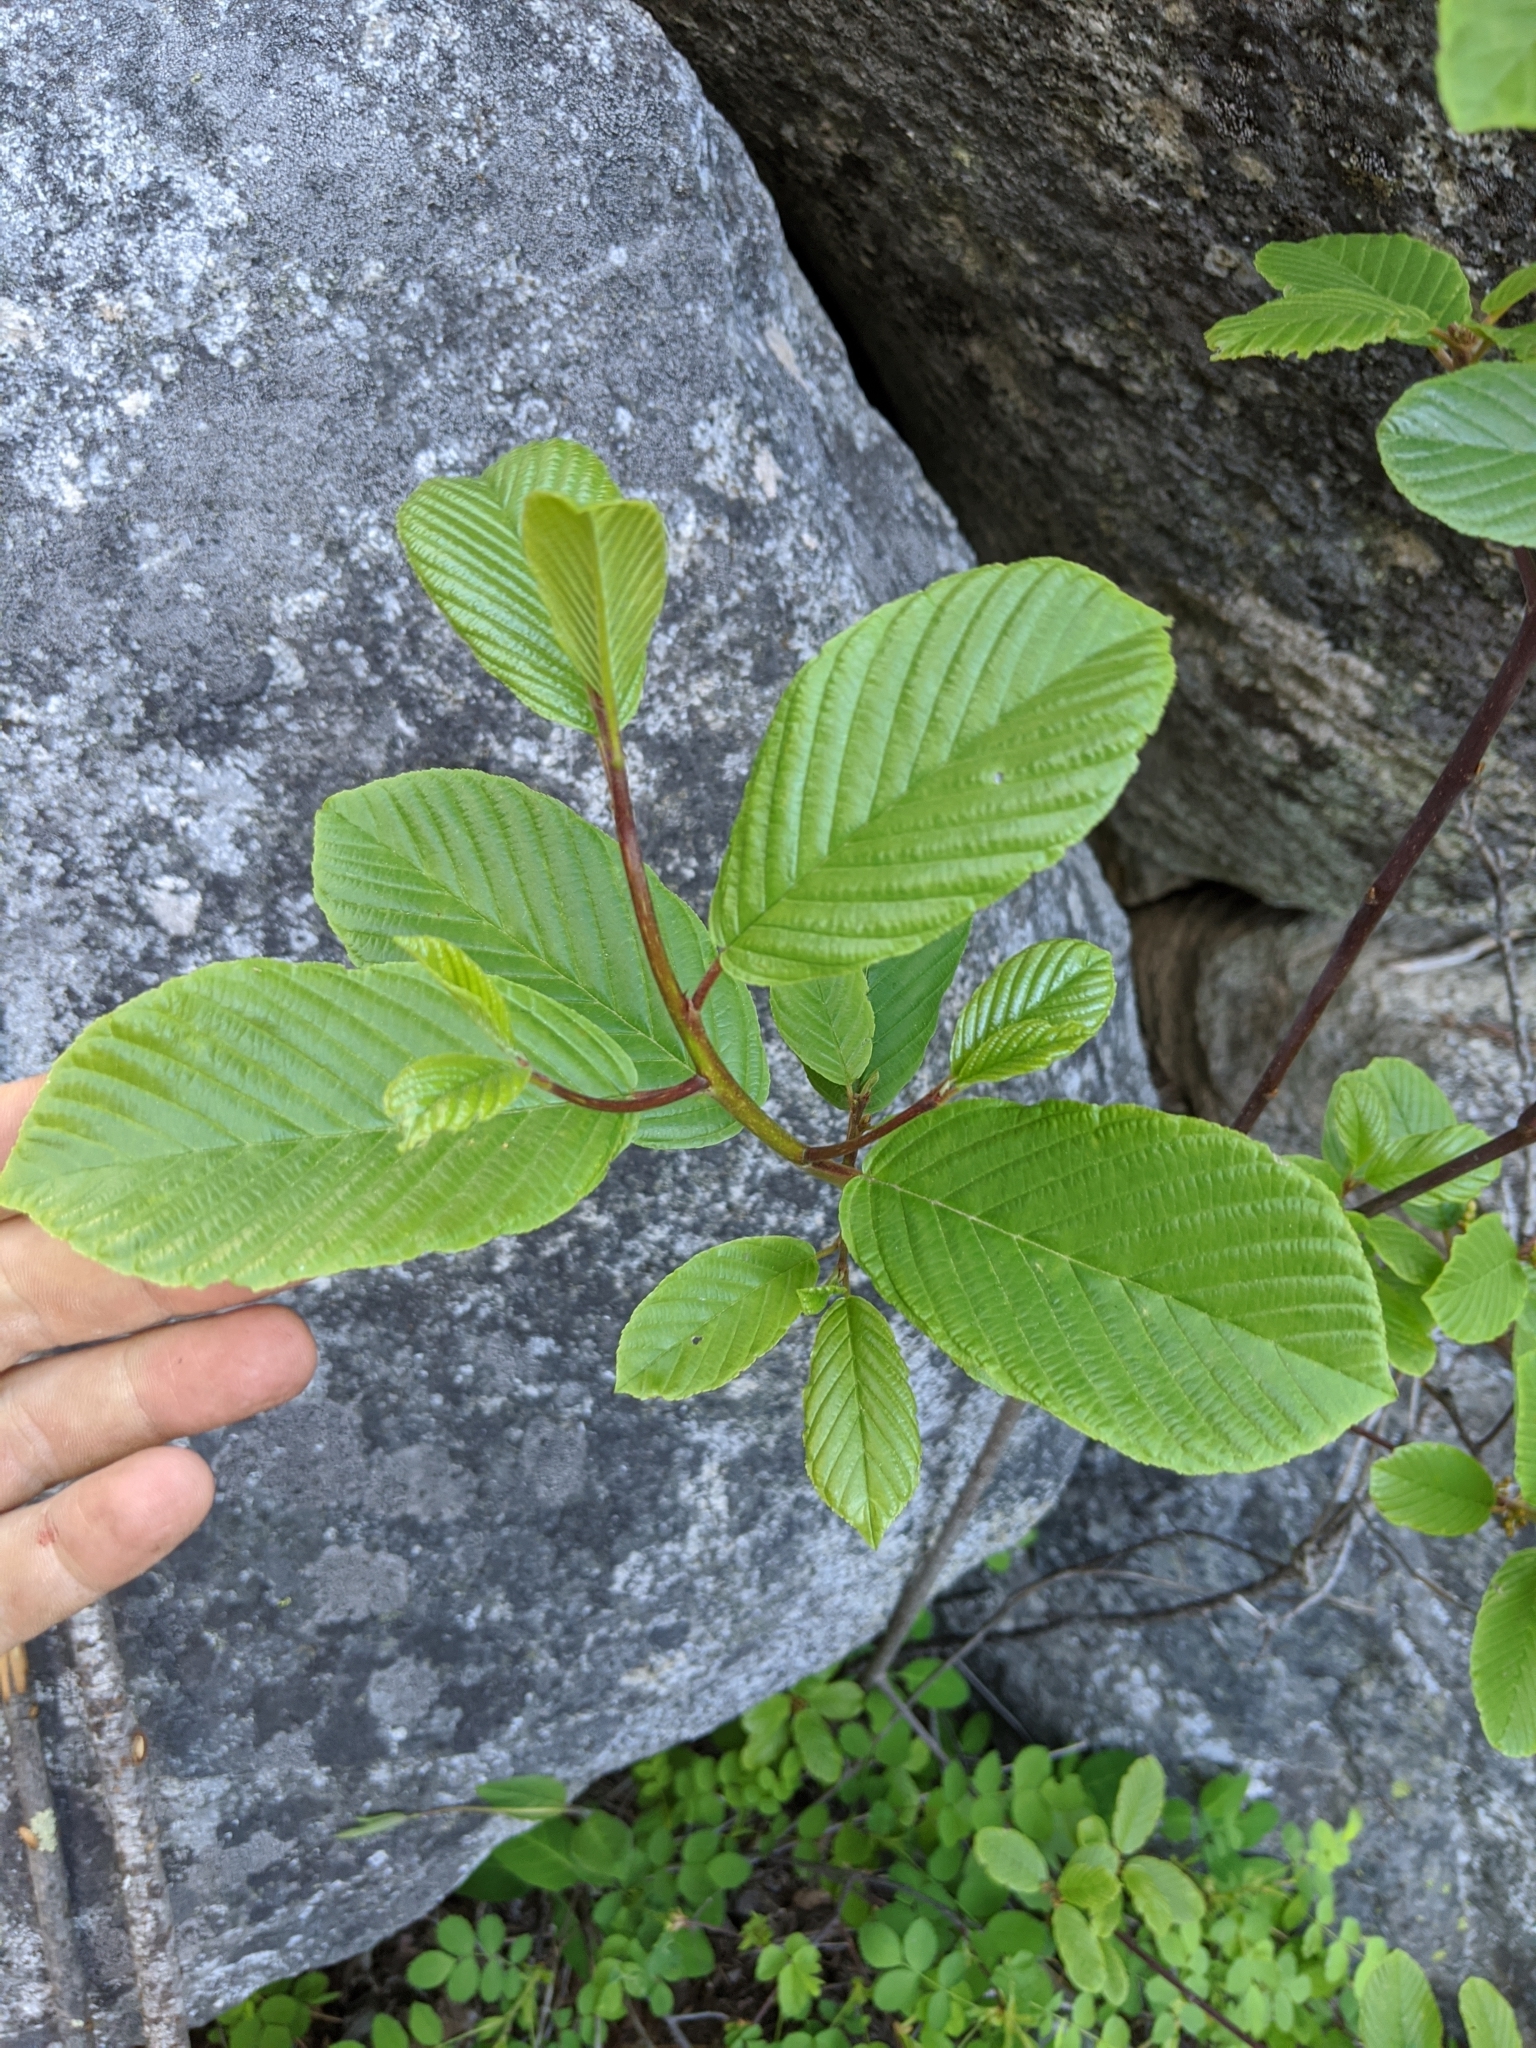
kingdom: Plantae
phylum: Tracheophyta
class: Magnoliopsida
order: Rosales
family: Rhamnaceae
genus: Frangula
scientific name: Frangula purshiana
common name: Cascara buckthorn
